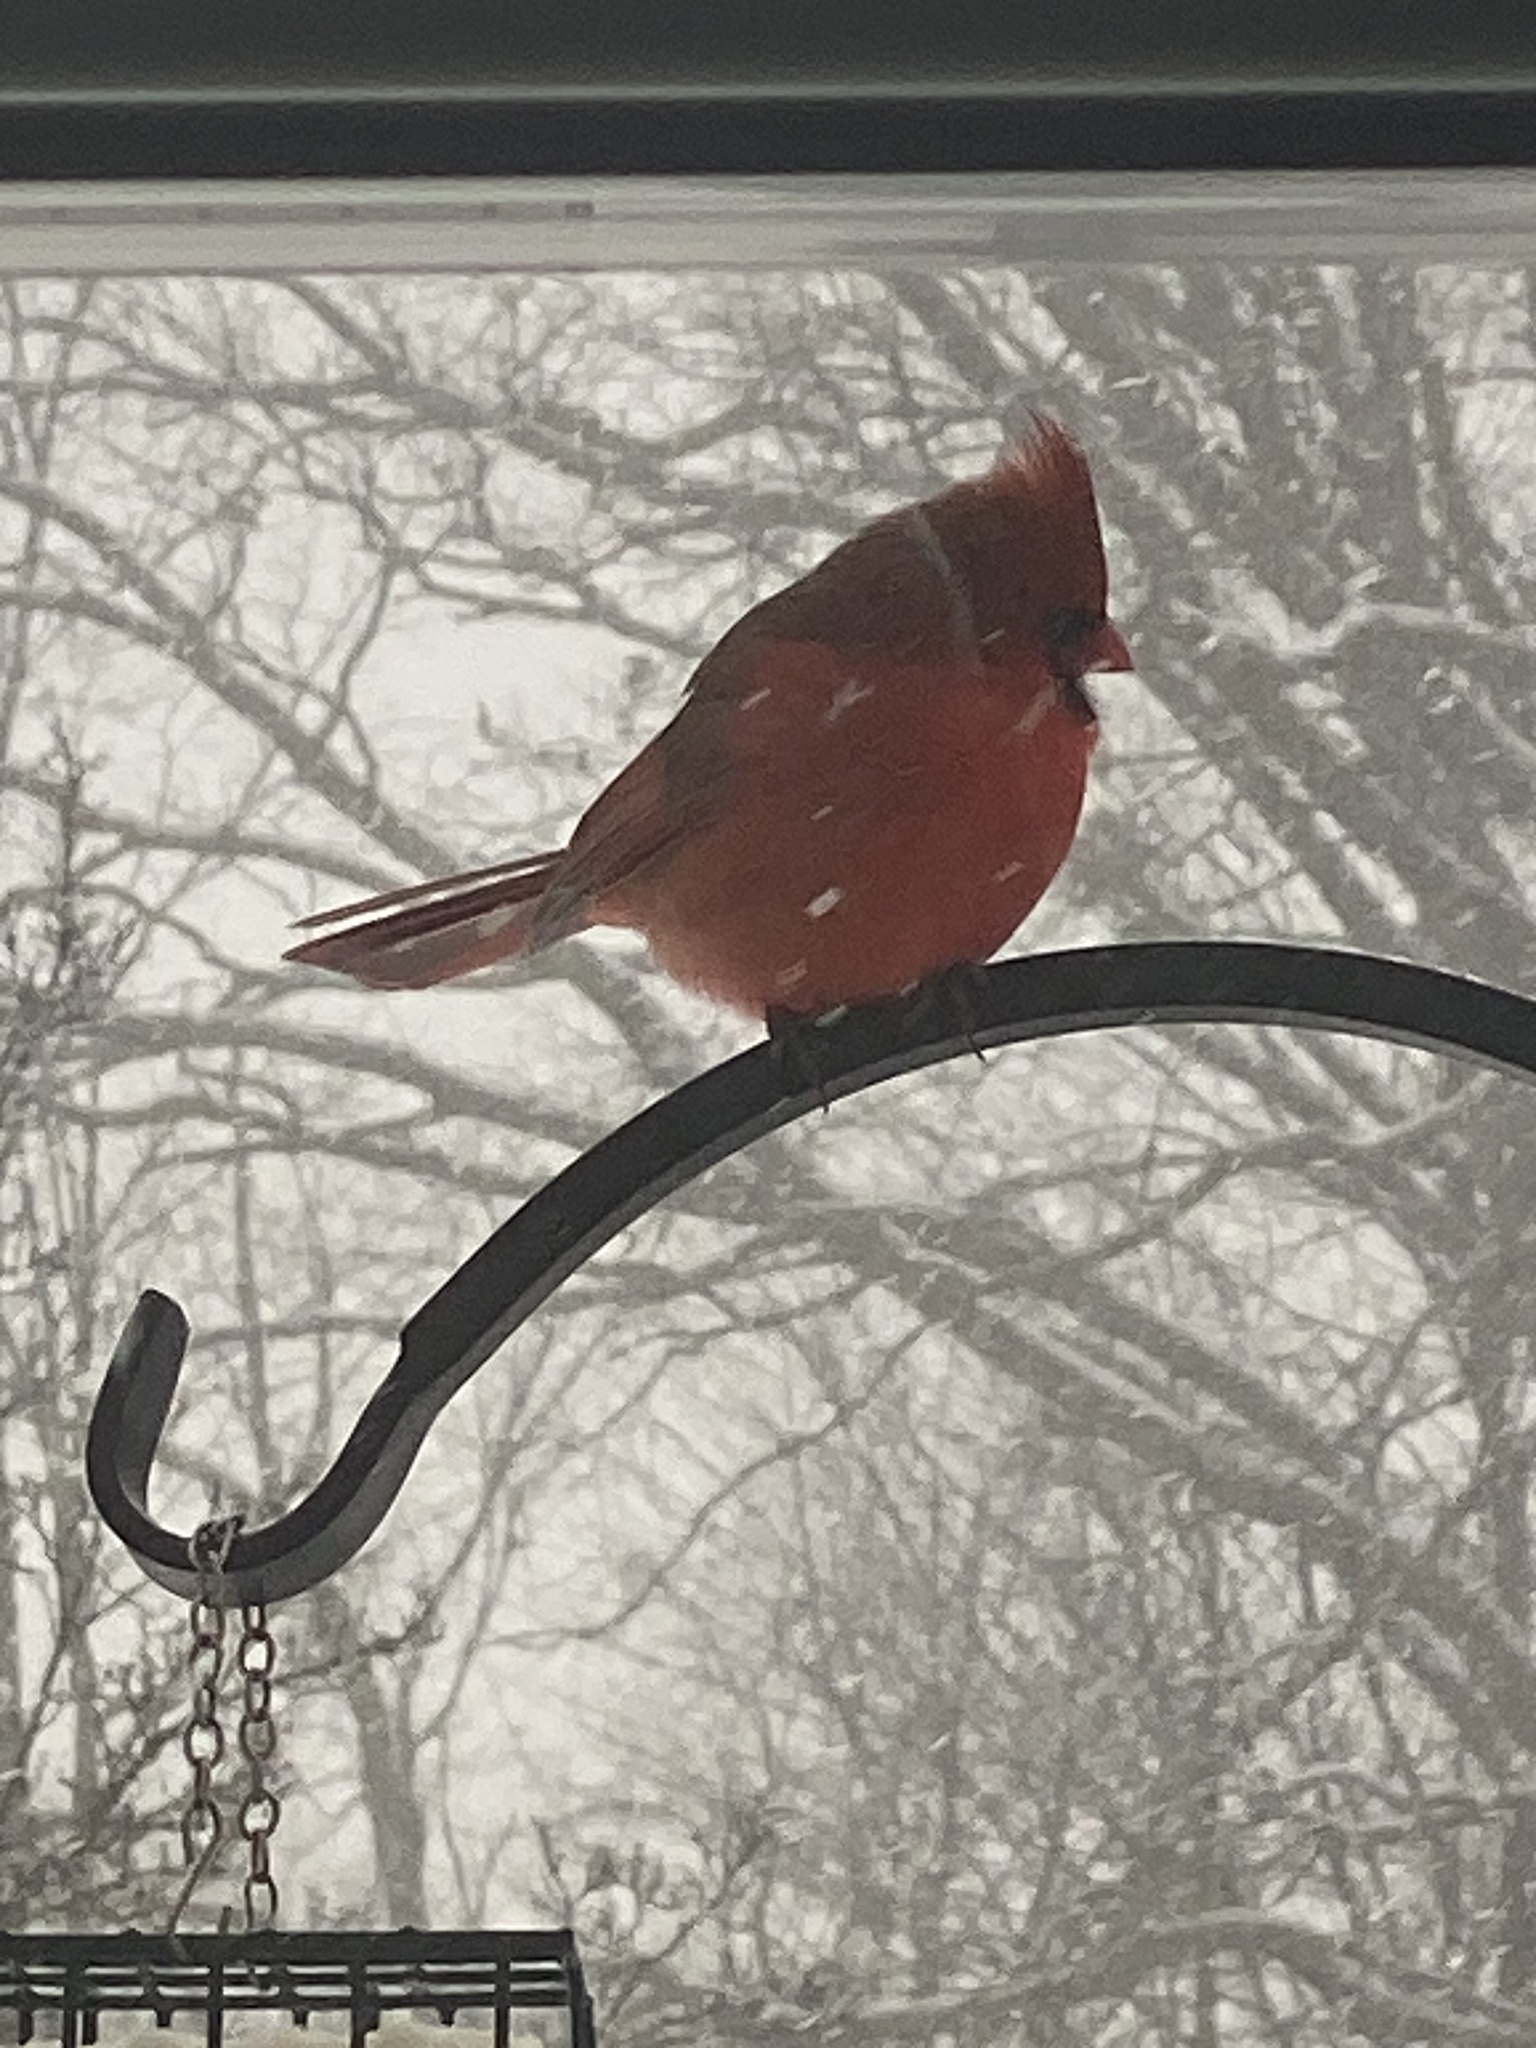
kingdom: Animalia
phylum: Chordata
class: Aves
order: Passeriformes
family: Cardinalidae
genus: Cardinalis
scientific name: Cardinalis cardinalis
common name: Northern cardinal
